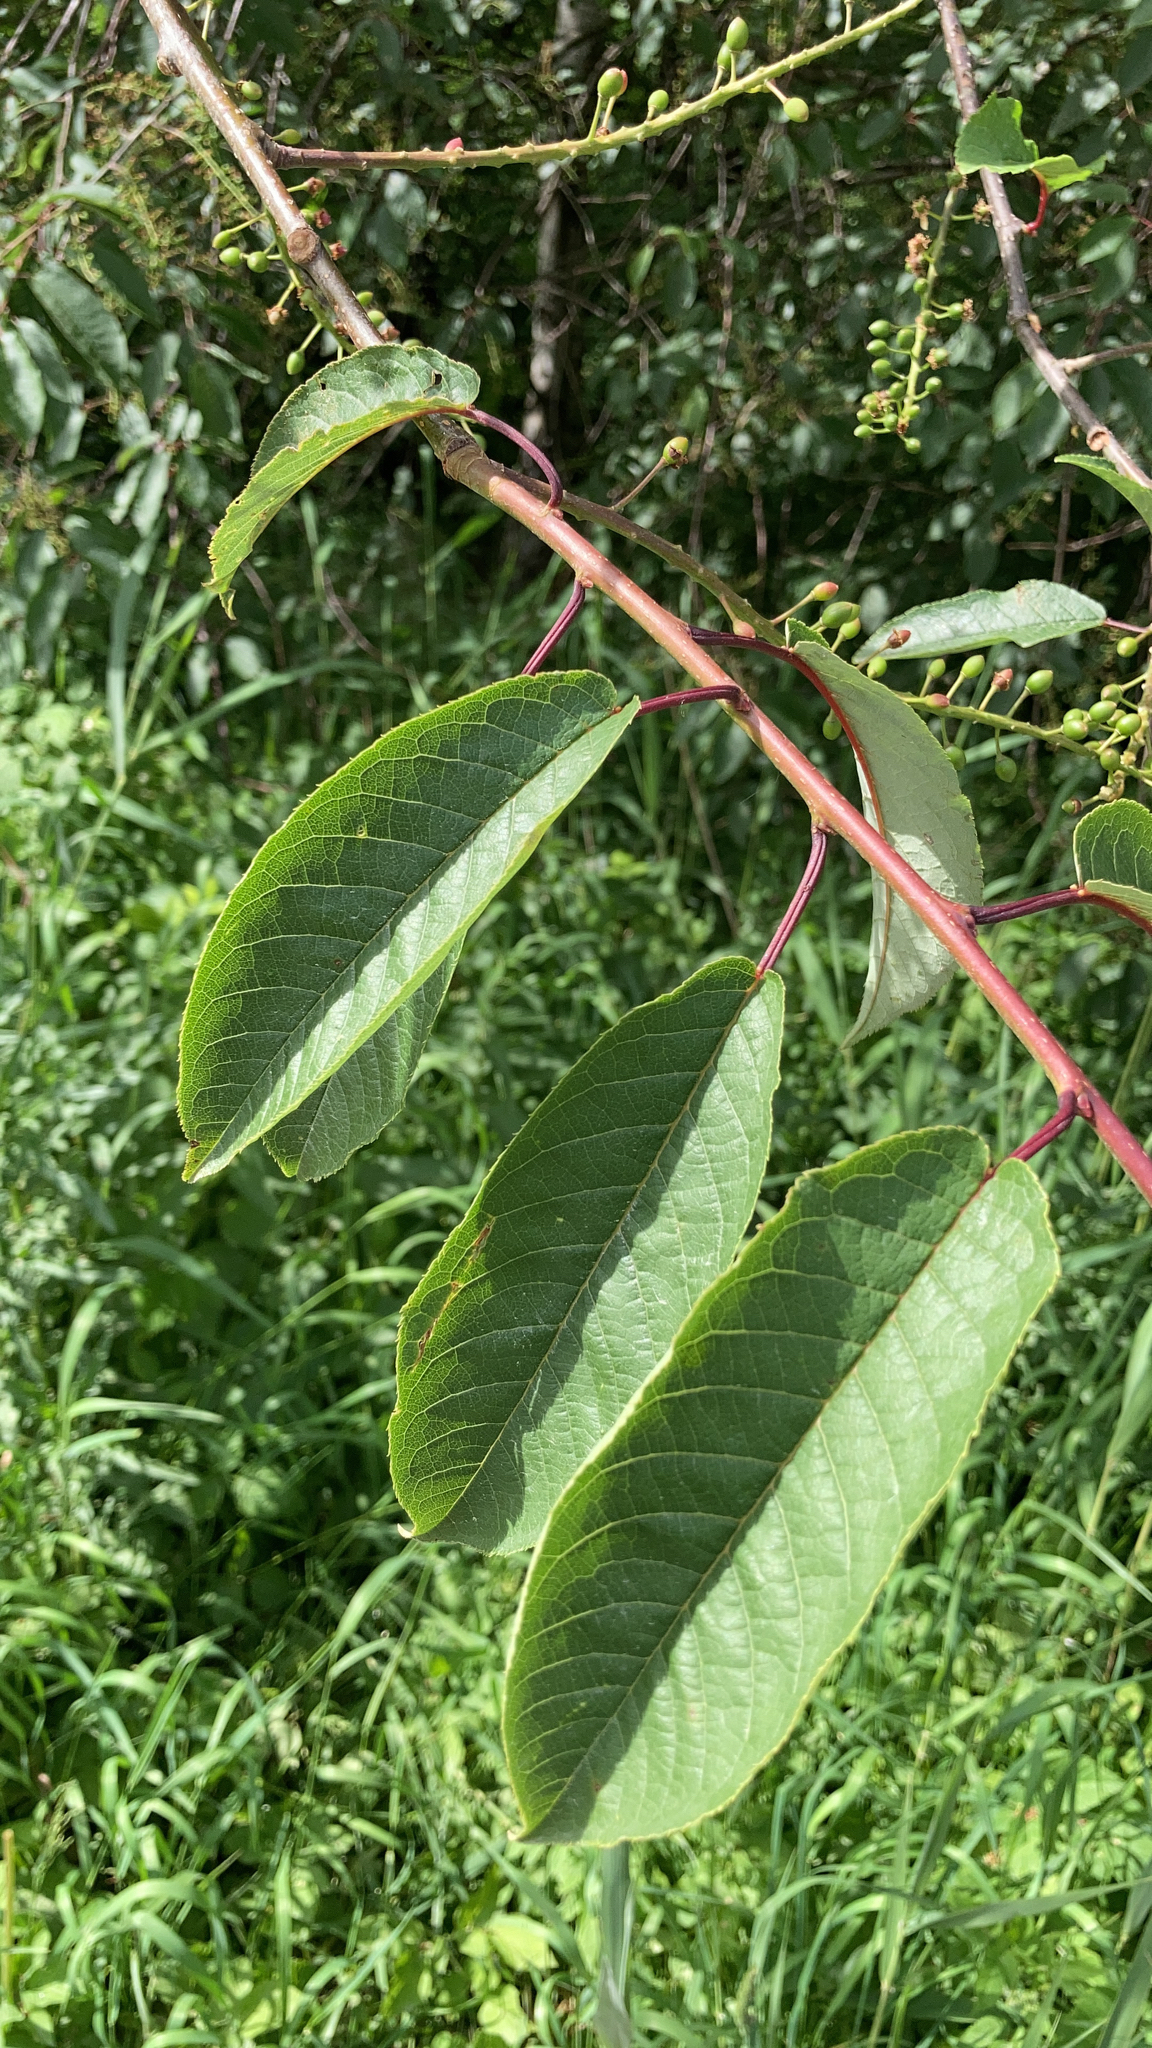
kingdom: Plantae
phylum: Tracheophyta
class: Magnoliopsida
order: Rosales
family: Rosaceae
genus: Prunus
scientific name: Prunus padus
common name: Bird cherry
